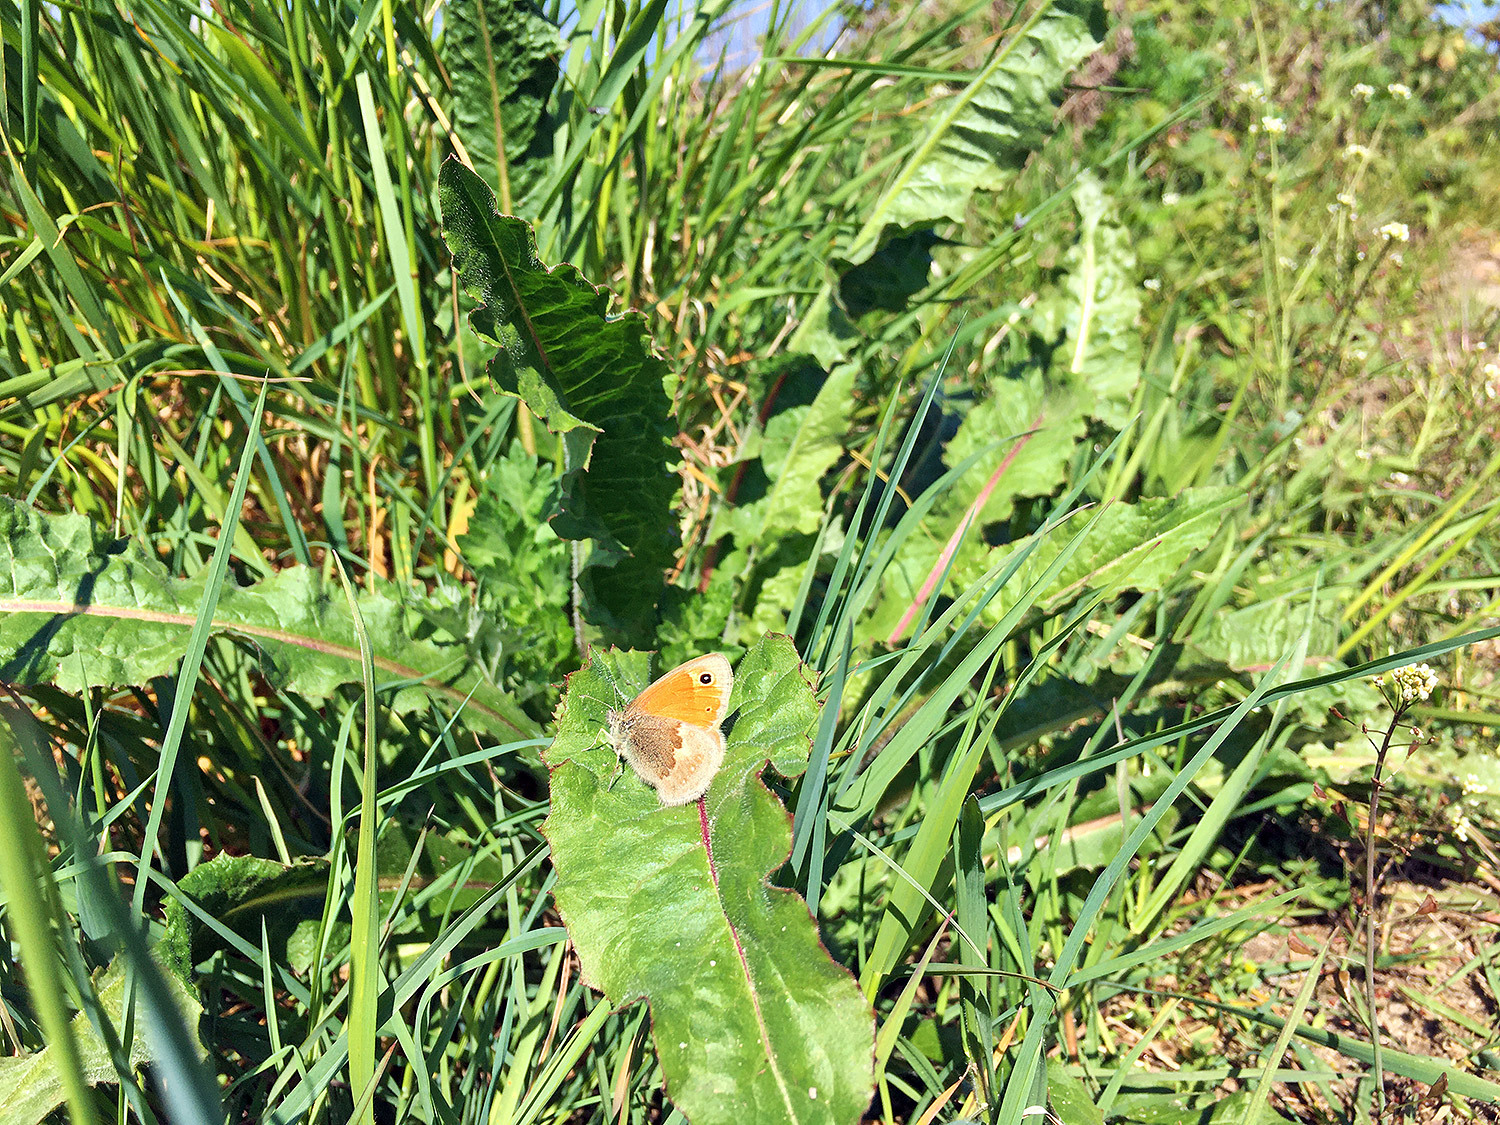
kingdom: Animalia
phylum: Arthropoda
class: Insecta
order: Lepidoptera
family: Nymphalidae
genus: Coenonympha
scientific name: Coenonympha pamphilus
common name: Small heath
